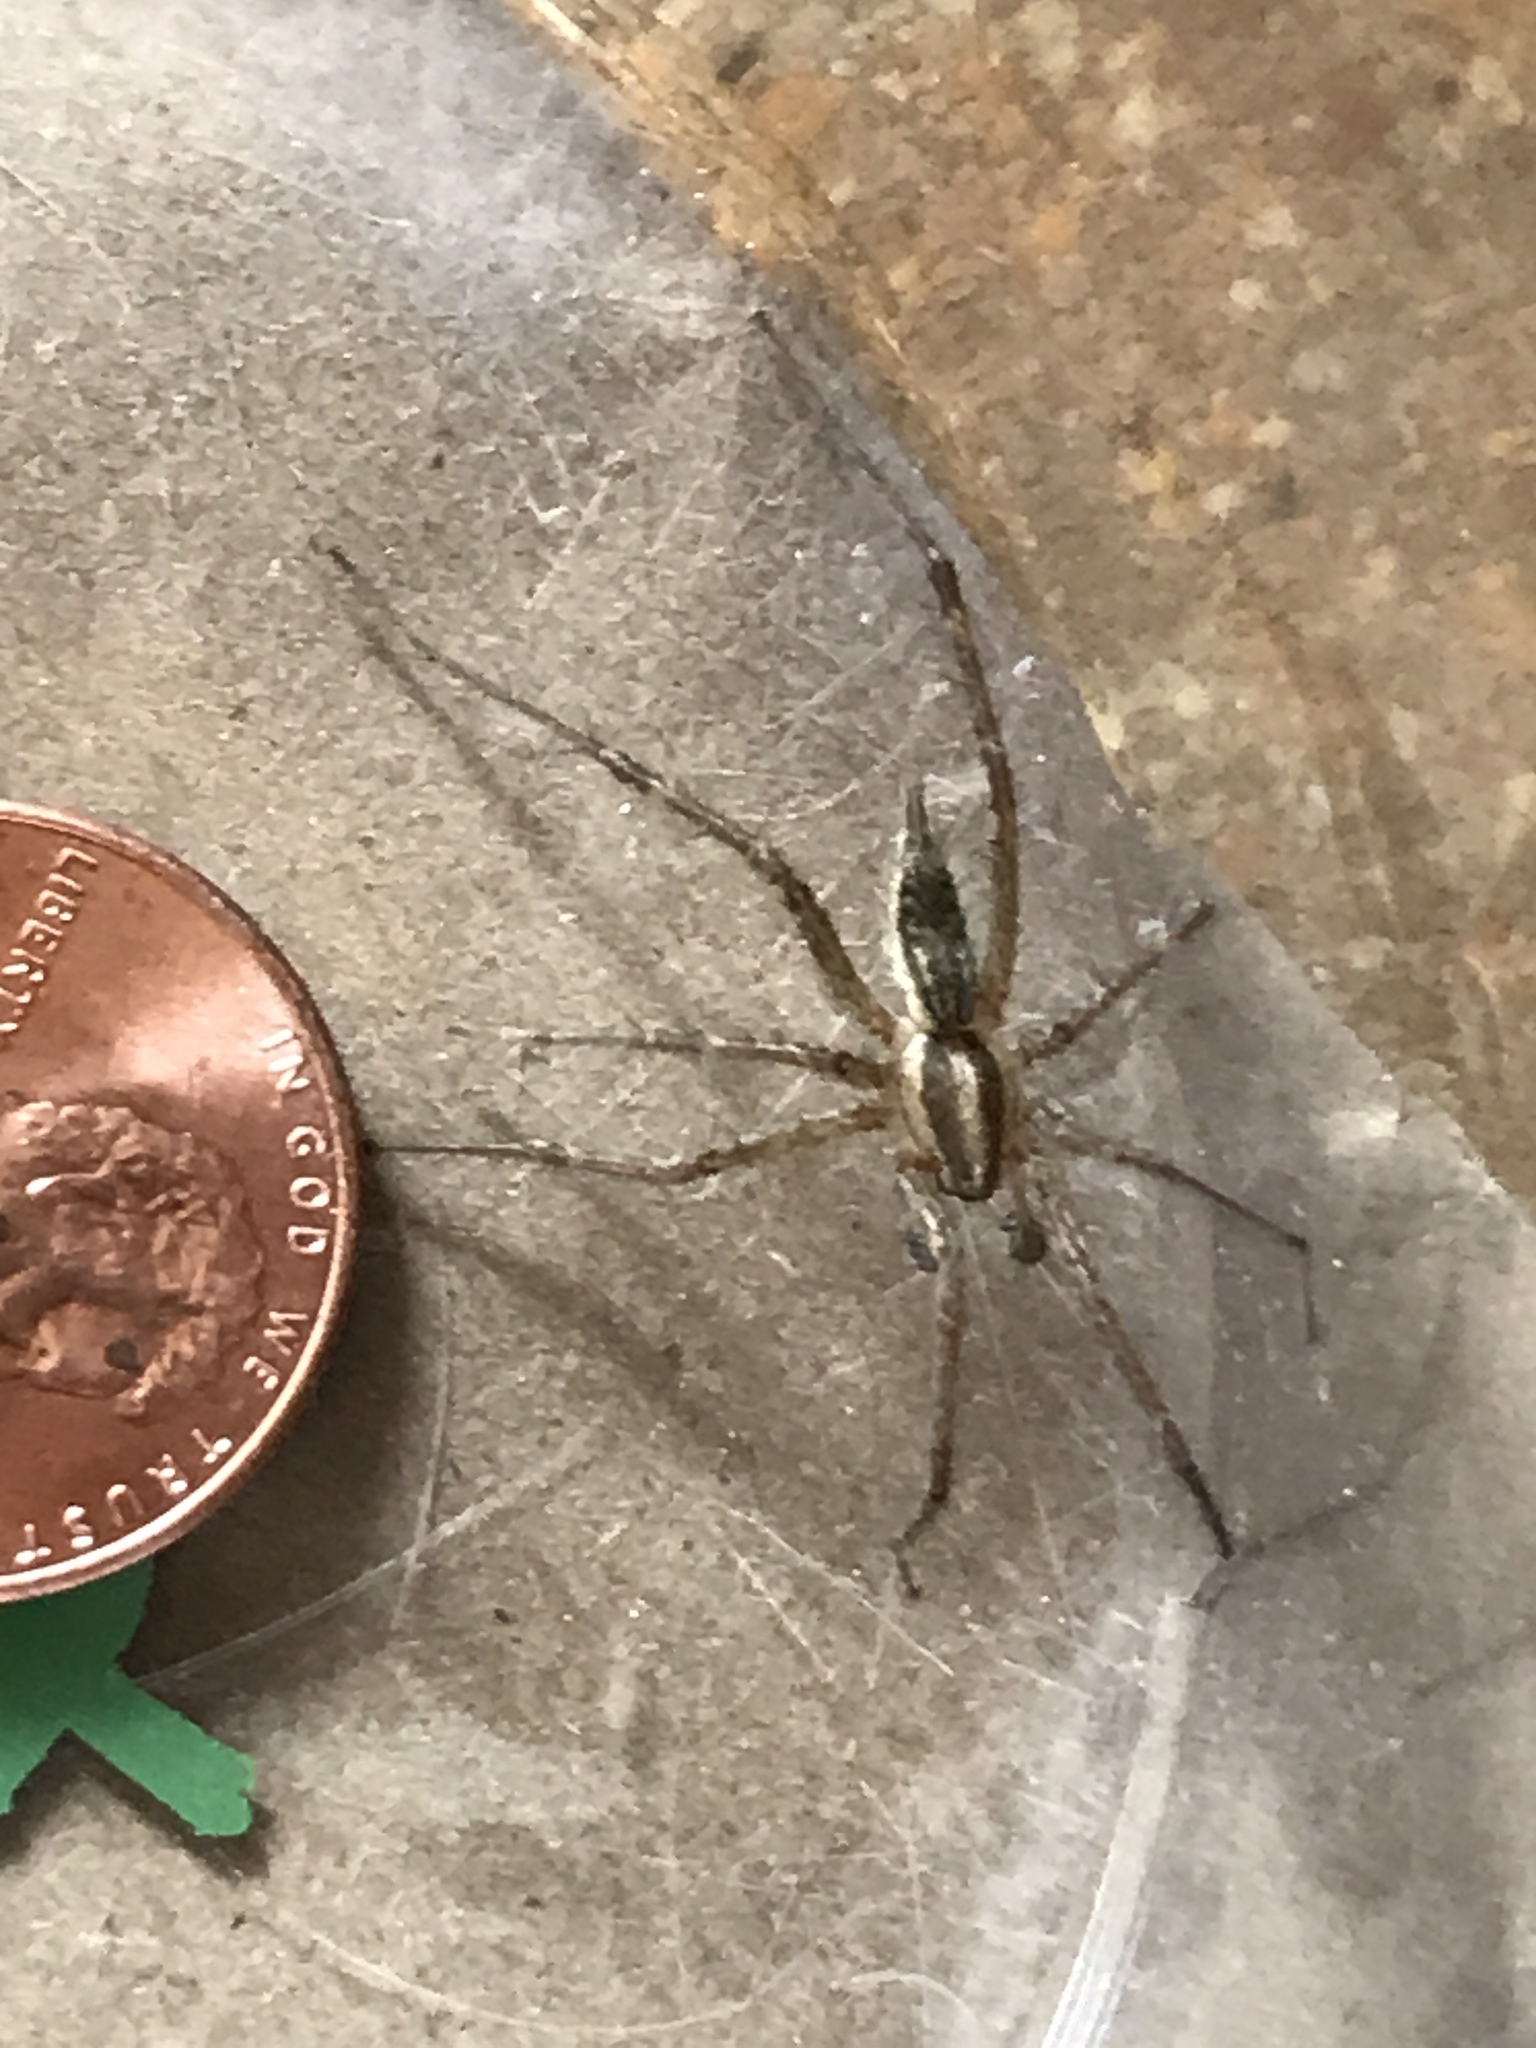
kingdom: Animalia
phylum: Arthropoda
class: Arachnida
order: Araneae
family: Agelenidae
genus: Agelenopsis
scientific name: Agelenopsis
